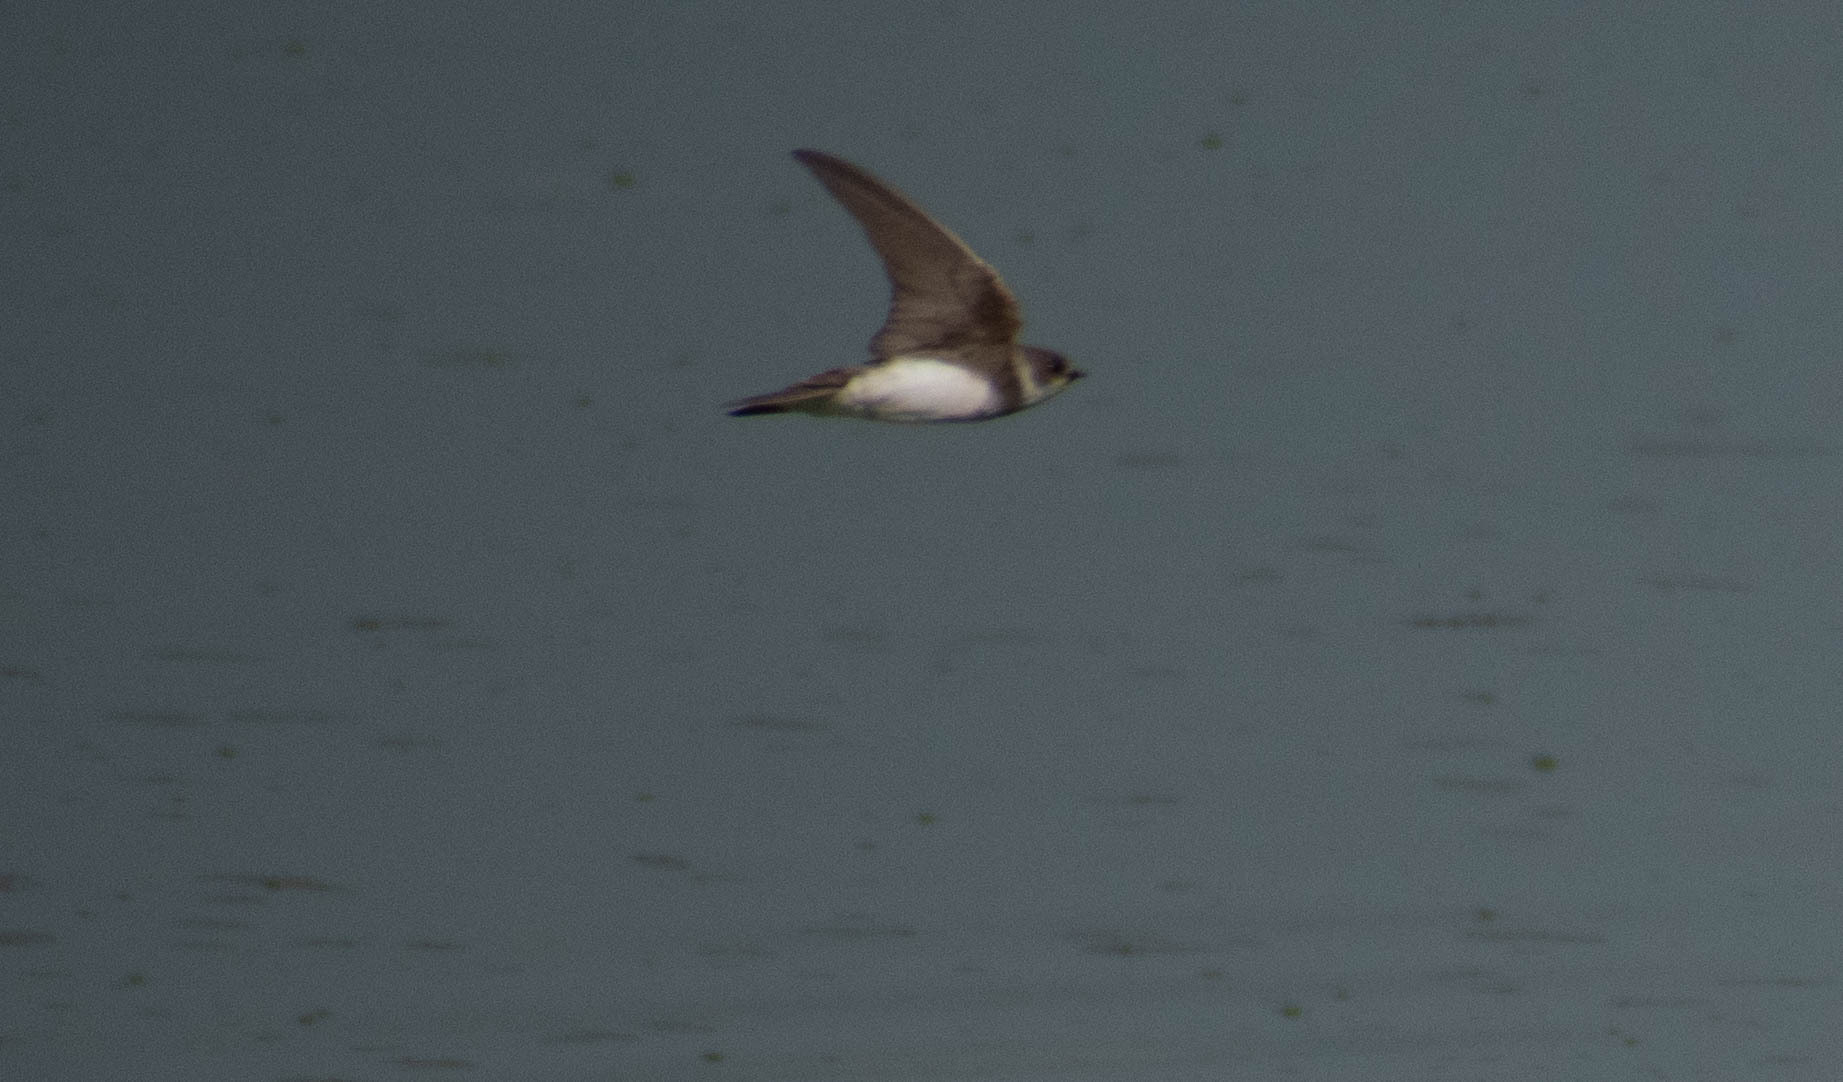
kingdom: Animalia
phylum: Chordata
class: Aves
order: Passeriformes
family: Hirundinidae
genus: Riparia
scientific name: Riparia riparia
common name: Sand martin
